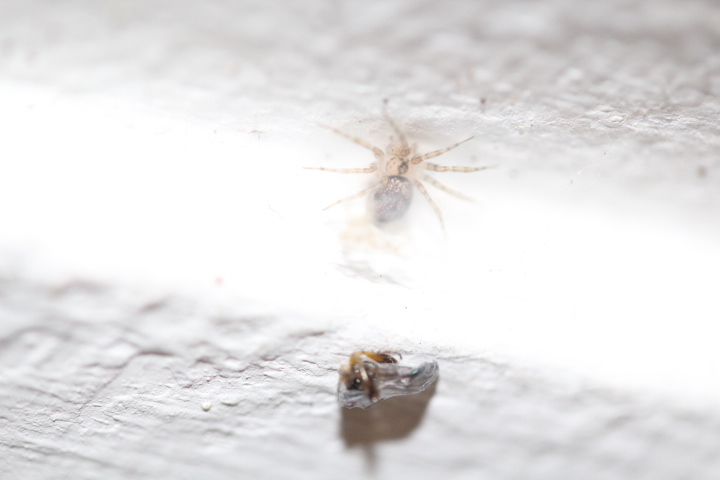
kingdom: Animalia
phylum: Arthropoda
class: Arachnida
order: Araneae
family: Oecobiidae
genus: Oecobius
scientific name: Oecobius navus
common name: Flatmesh weaver
